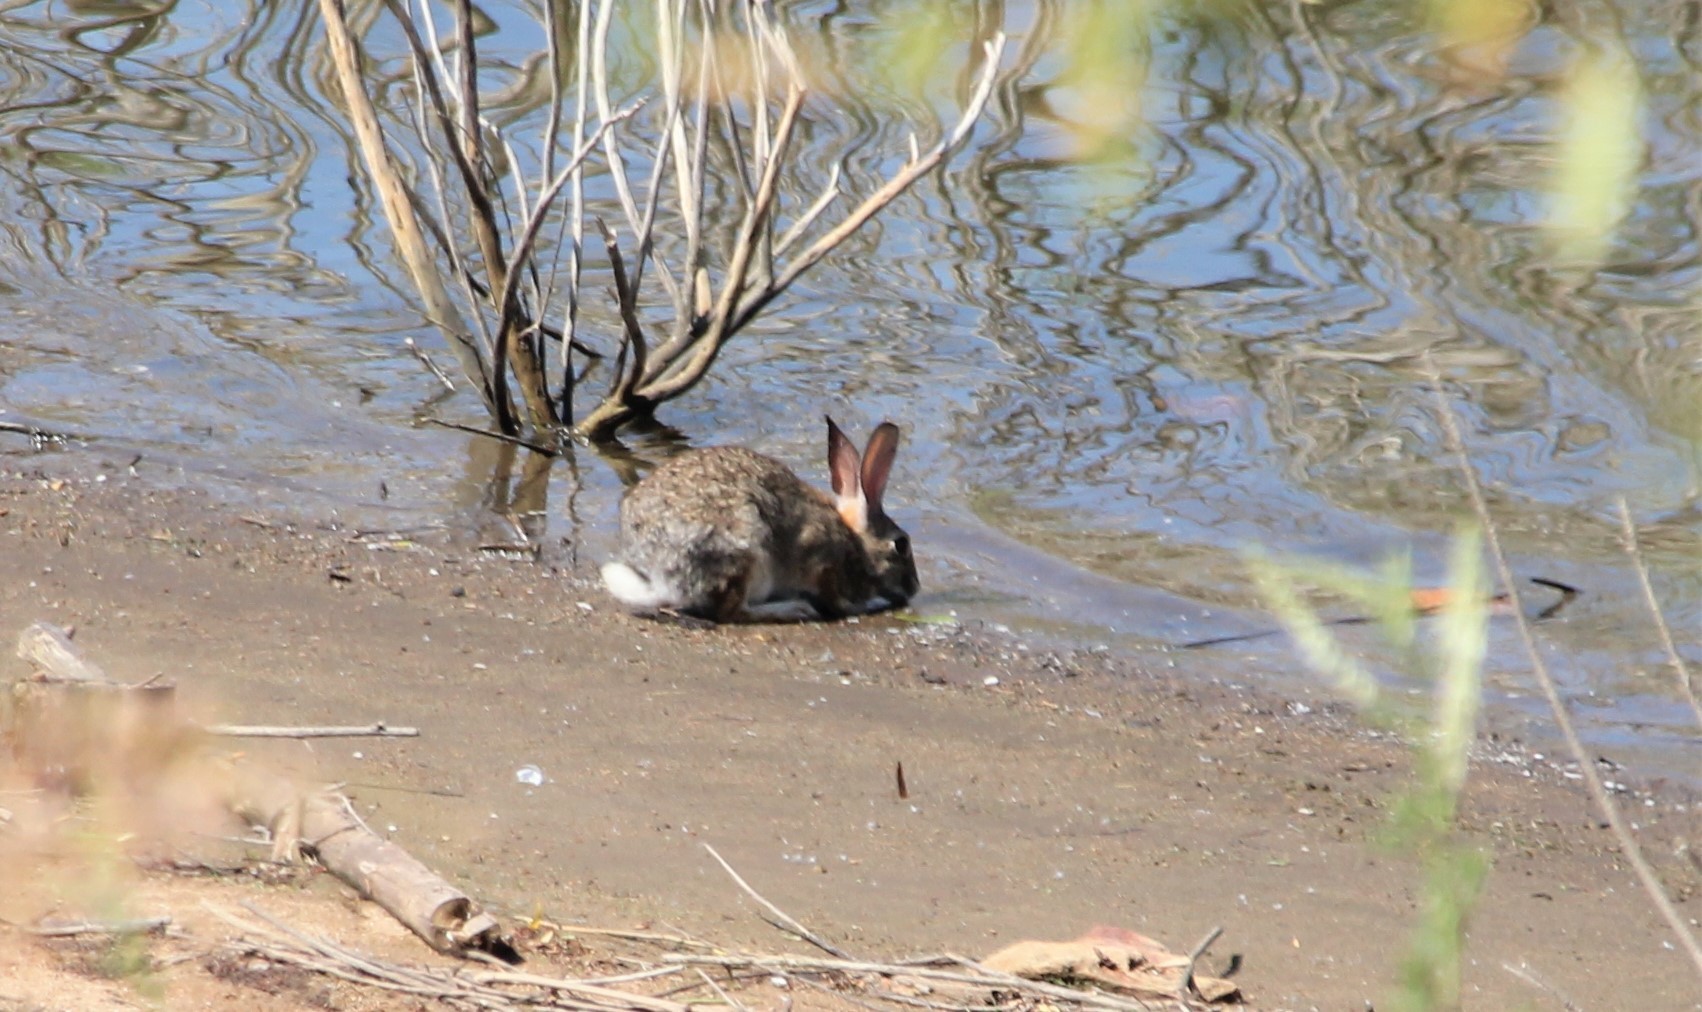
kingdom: Animalia
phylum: Chordata
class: Mammalia
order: Lagomorpha
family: Leporidae
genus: Sylvilagus
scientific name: Sylvilagus audubonii
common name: Desert cottontail
